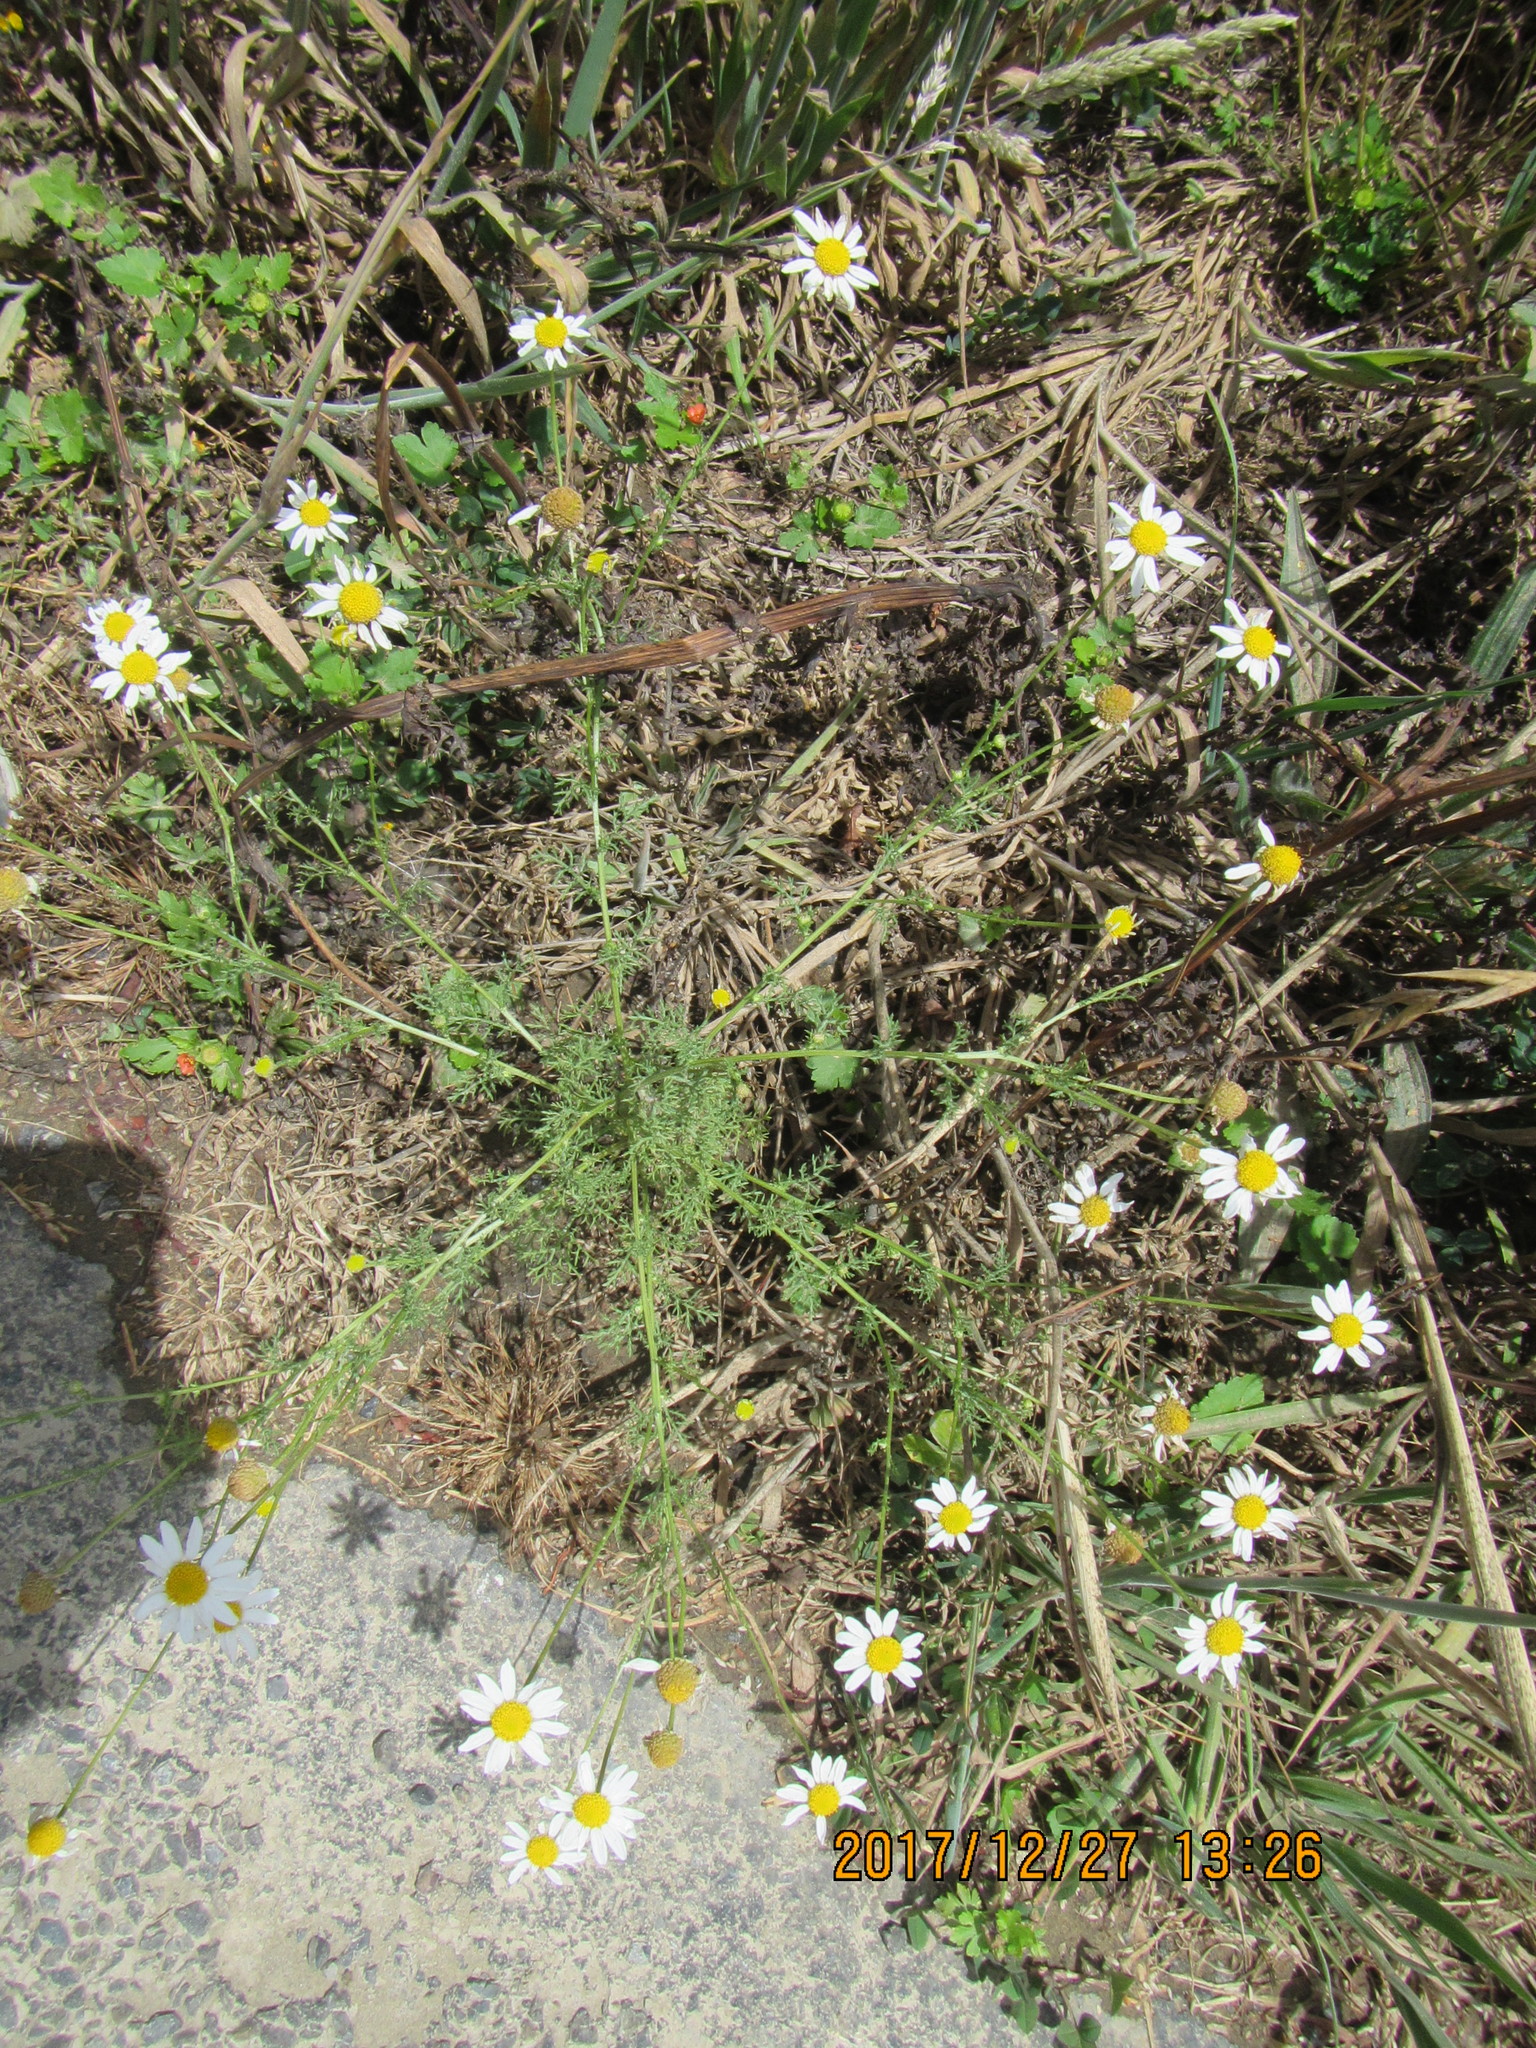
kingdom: Plantae
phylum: Tracheophyta
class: Magnoliopsida
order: Asterales
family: Asteraceae
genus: Tripleurospermum
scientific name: Tripleurospermum inodorum
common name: Scentless mayweed
